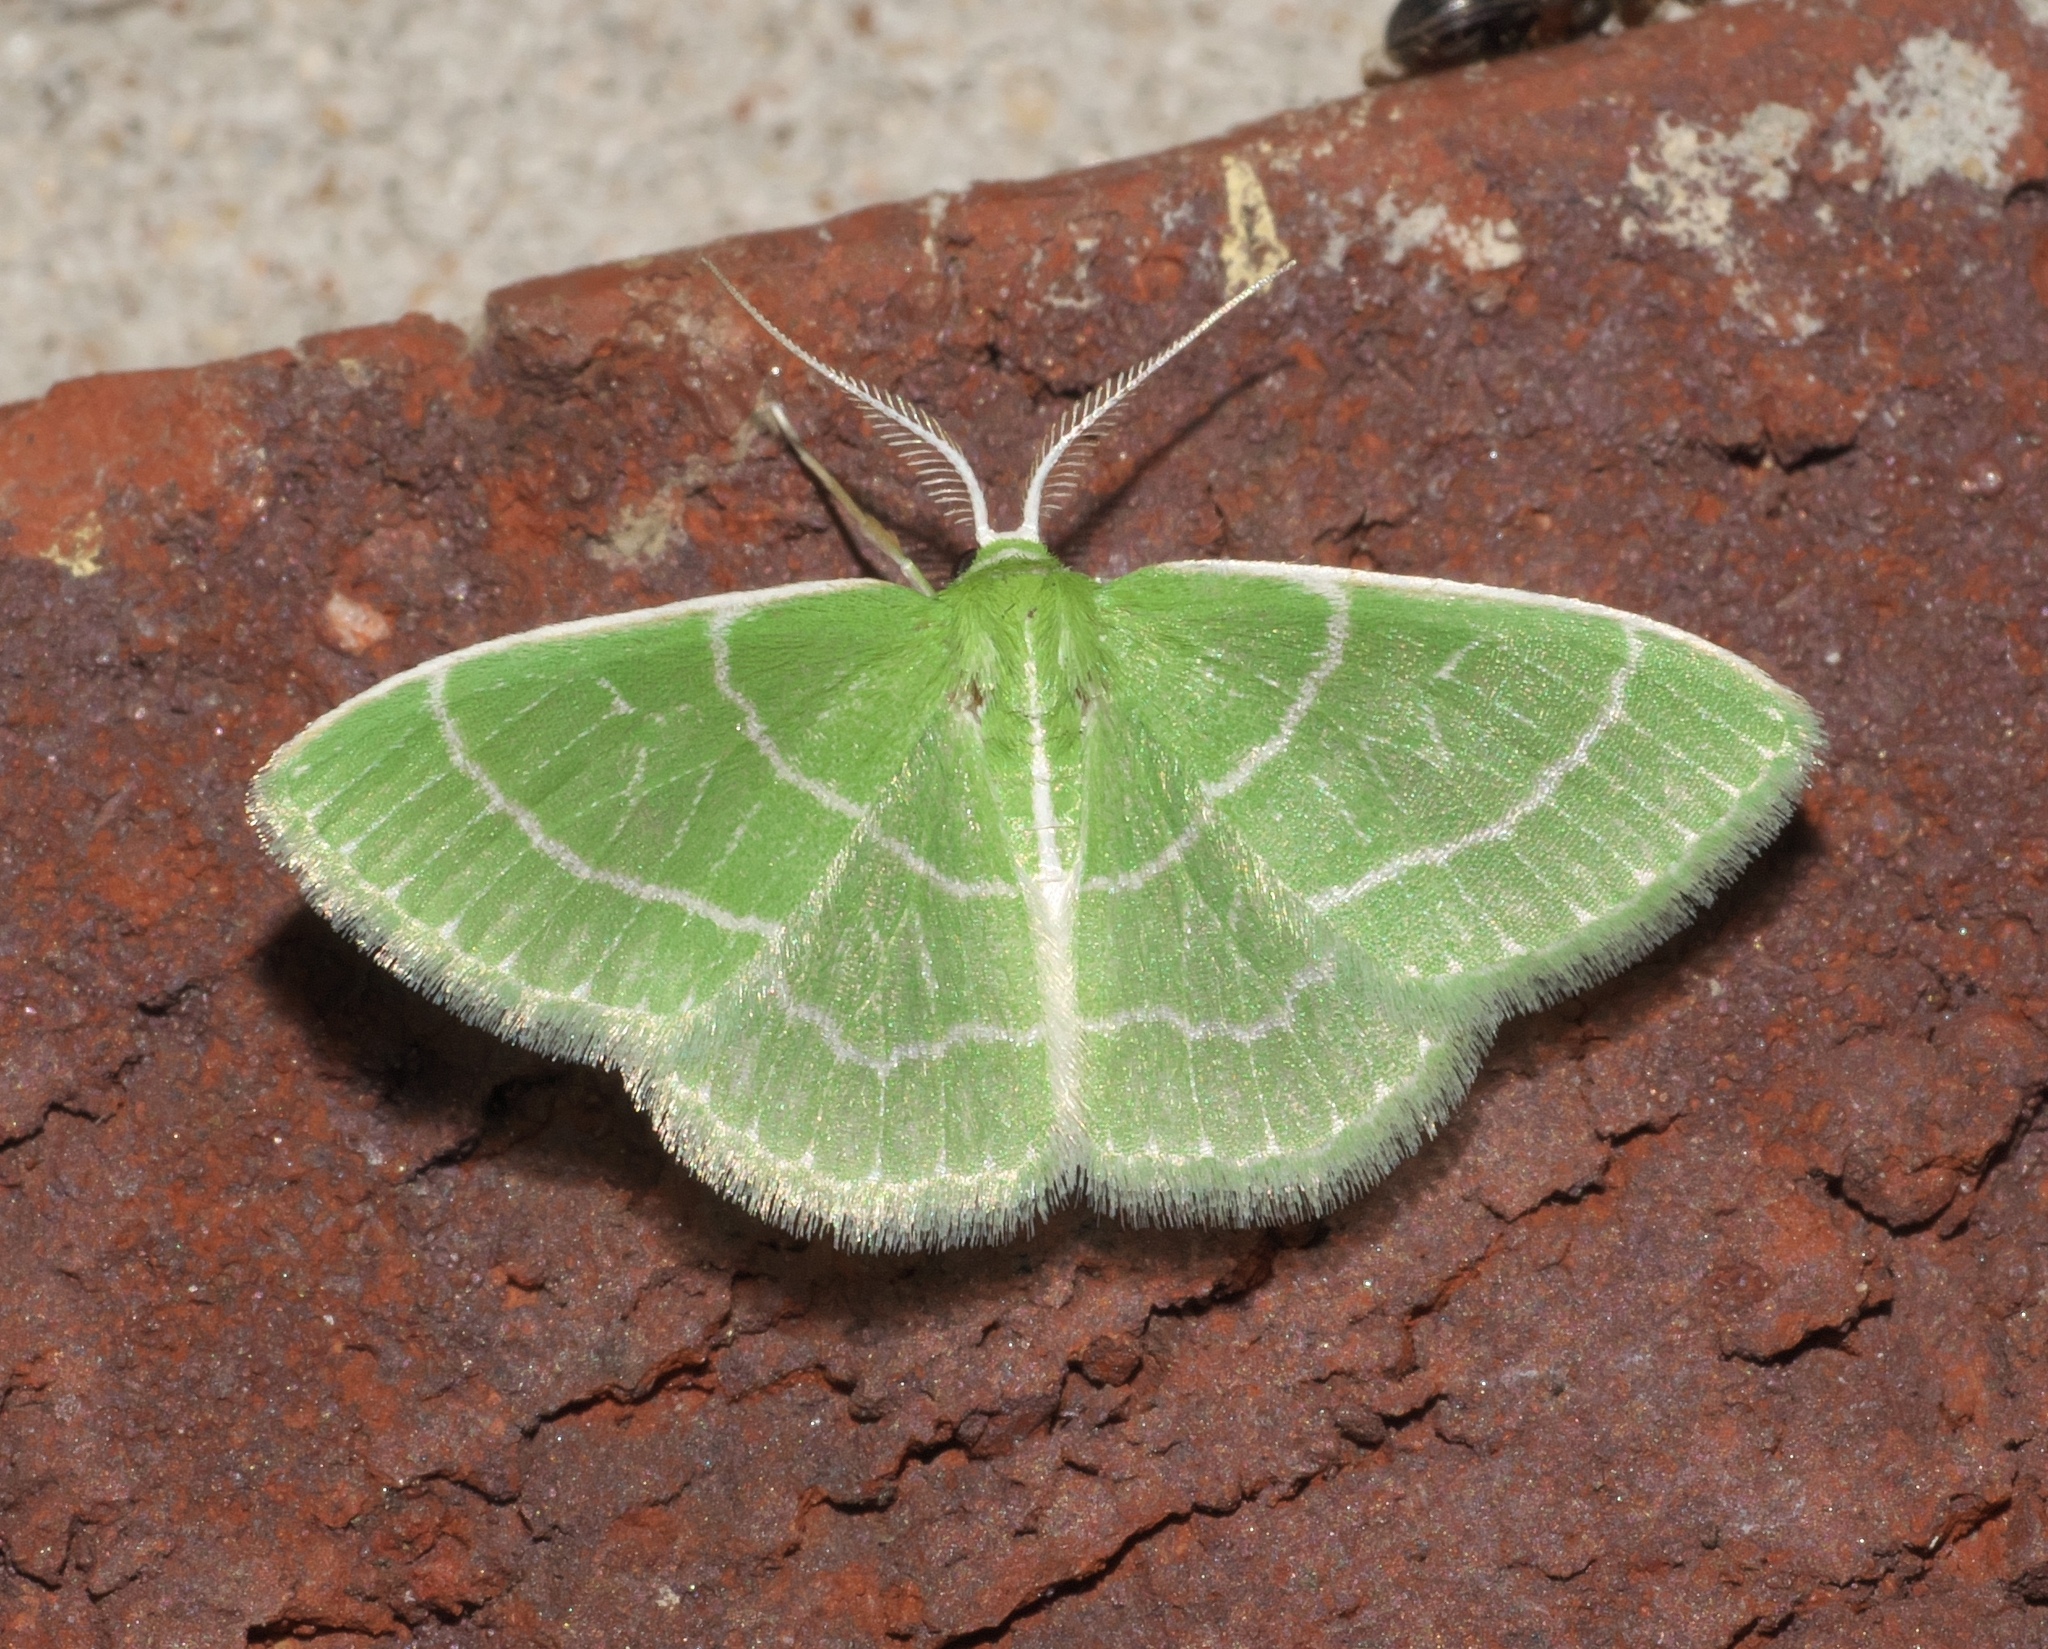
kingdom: Animalia
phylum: Arthropoda
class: Insecta
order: Lepidoptera
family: Geometridae
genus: Synchlora
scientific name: Synchlora aerata
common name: Wavy-lined emerald
